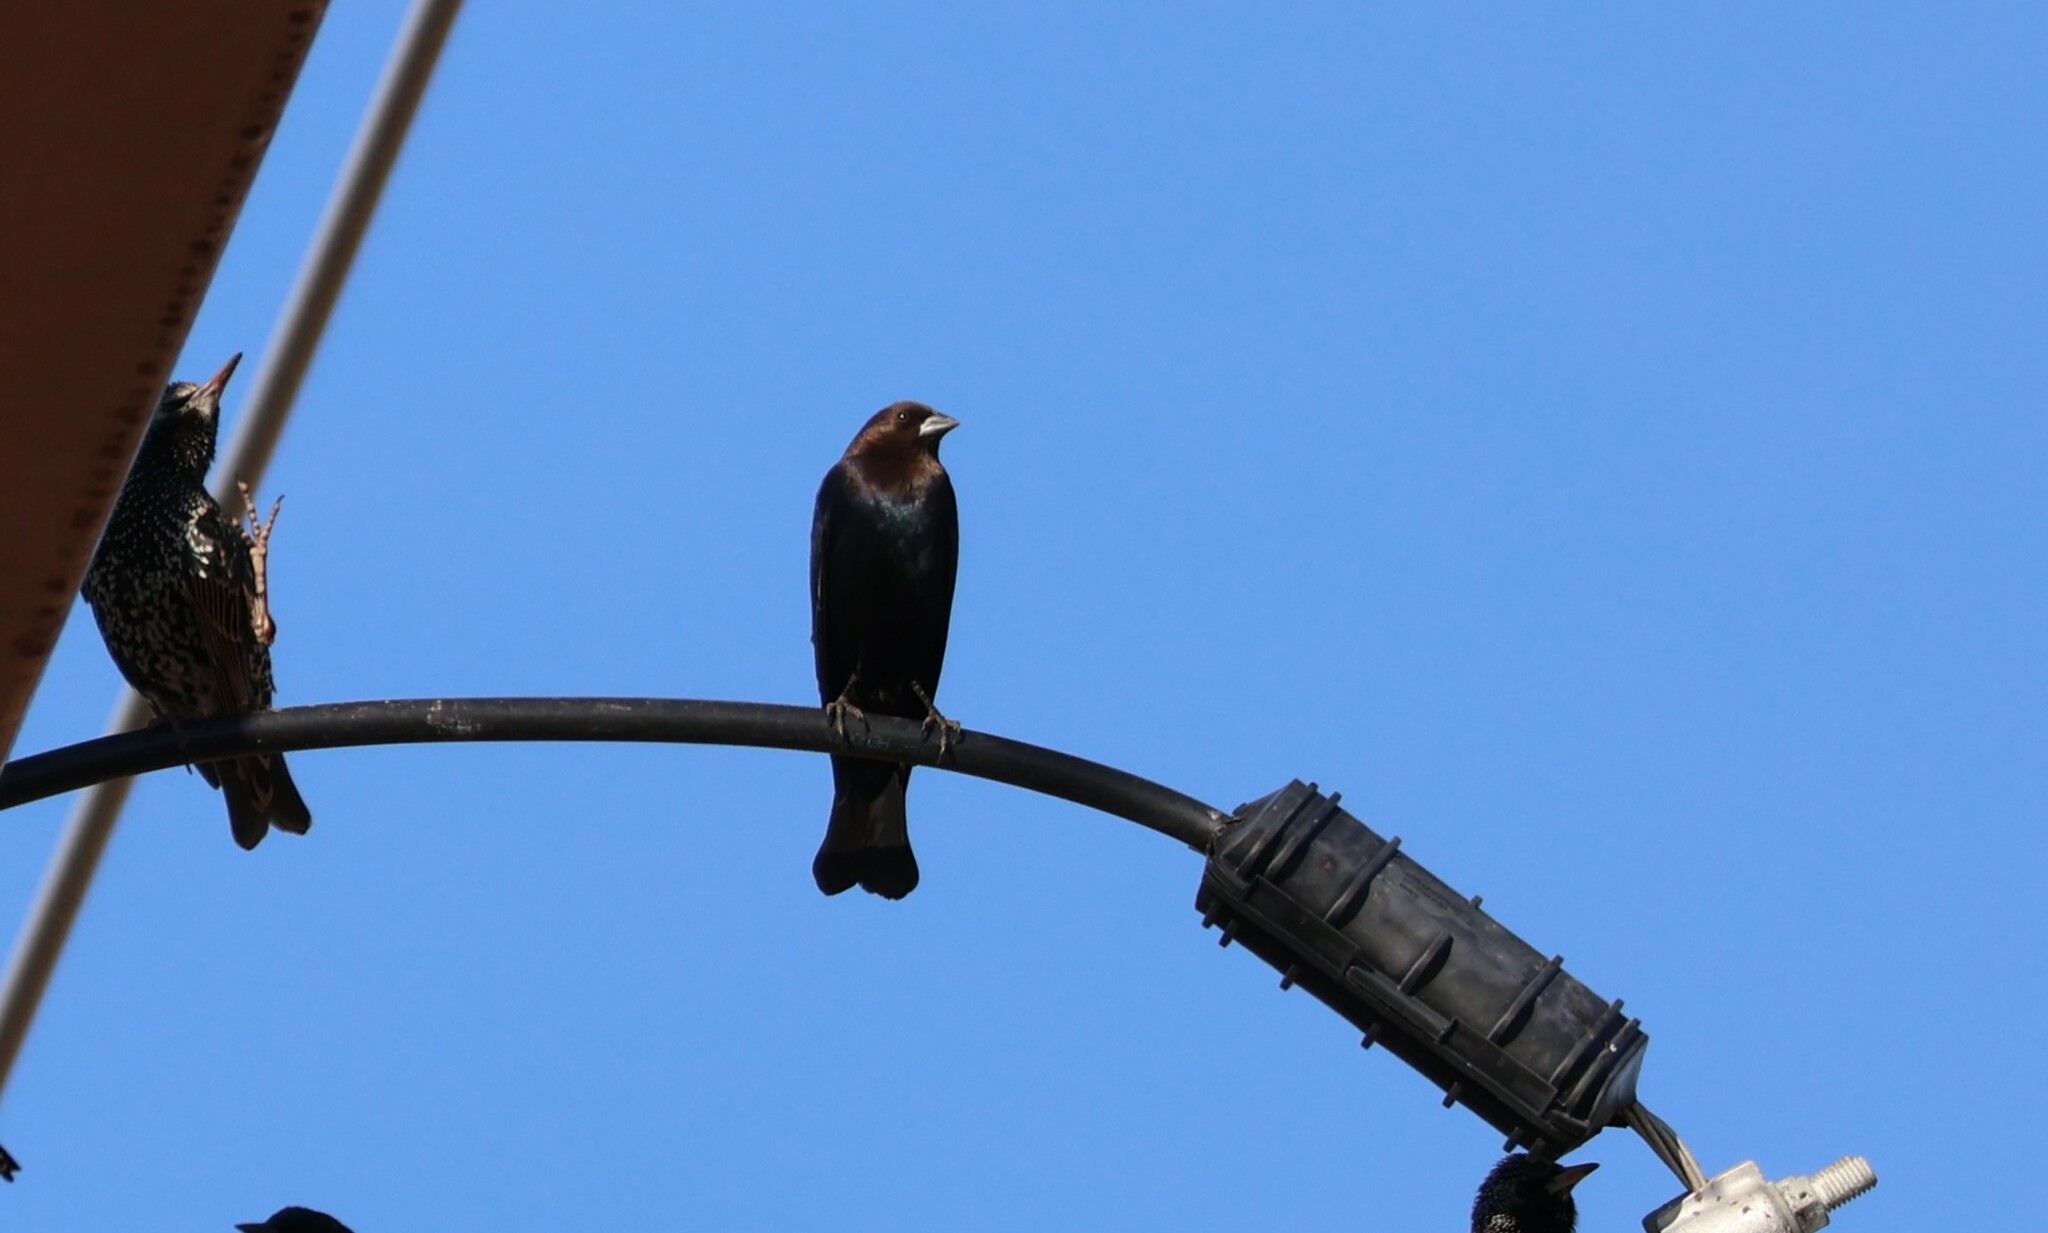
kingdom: Animalia
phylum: Chordata
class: Aves
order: Passeriformes
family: Icteridae
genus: Molothrus
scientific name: Molothrus ater
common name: Brown-headed cowbird
